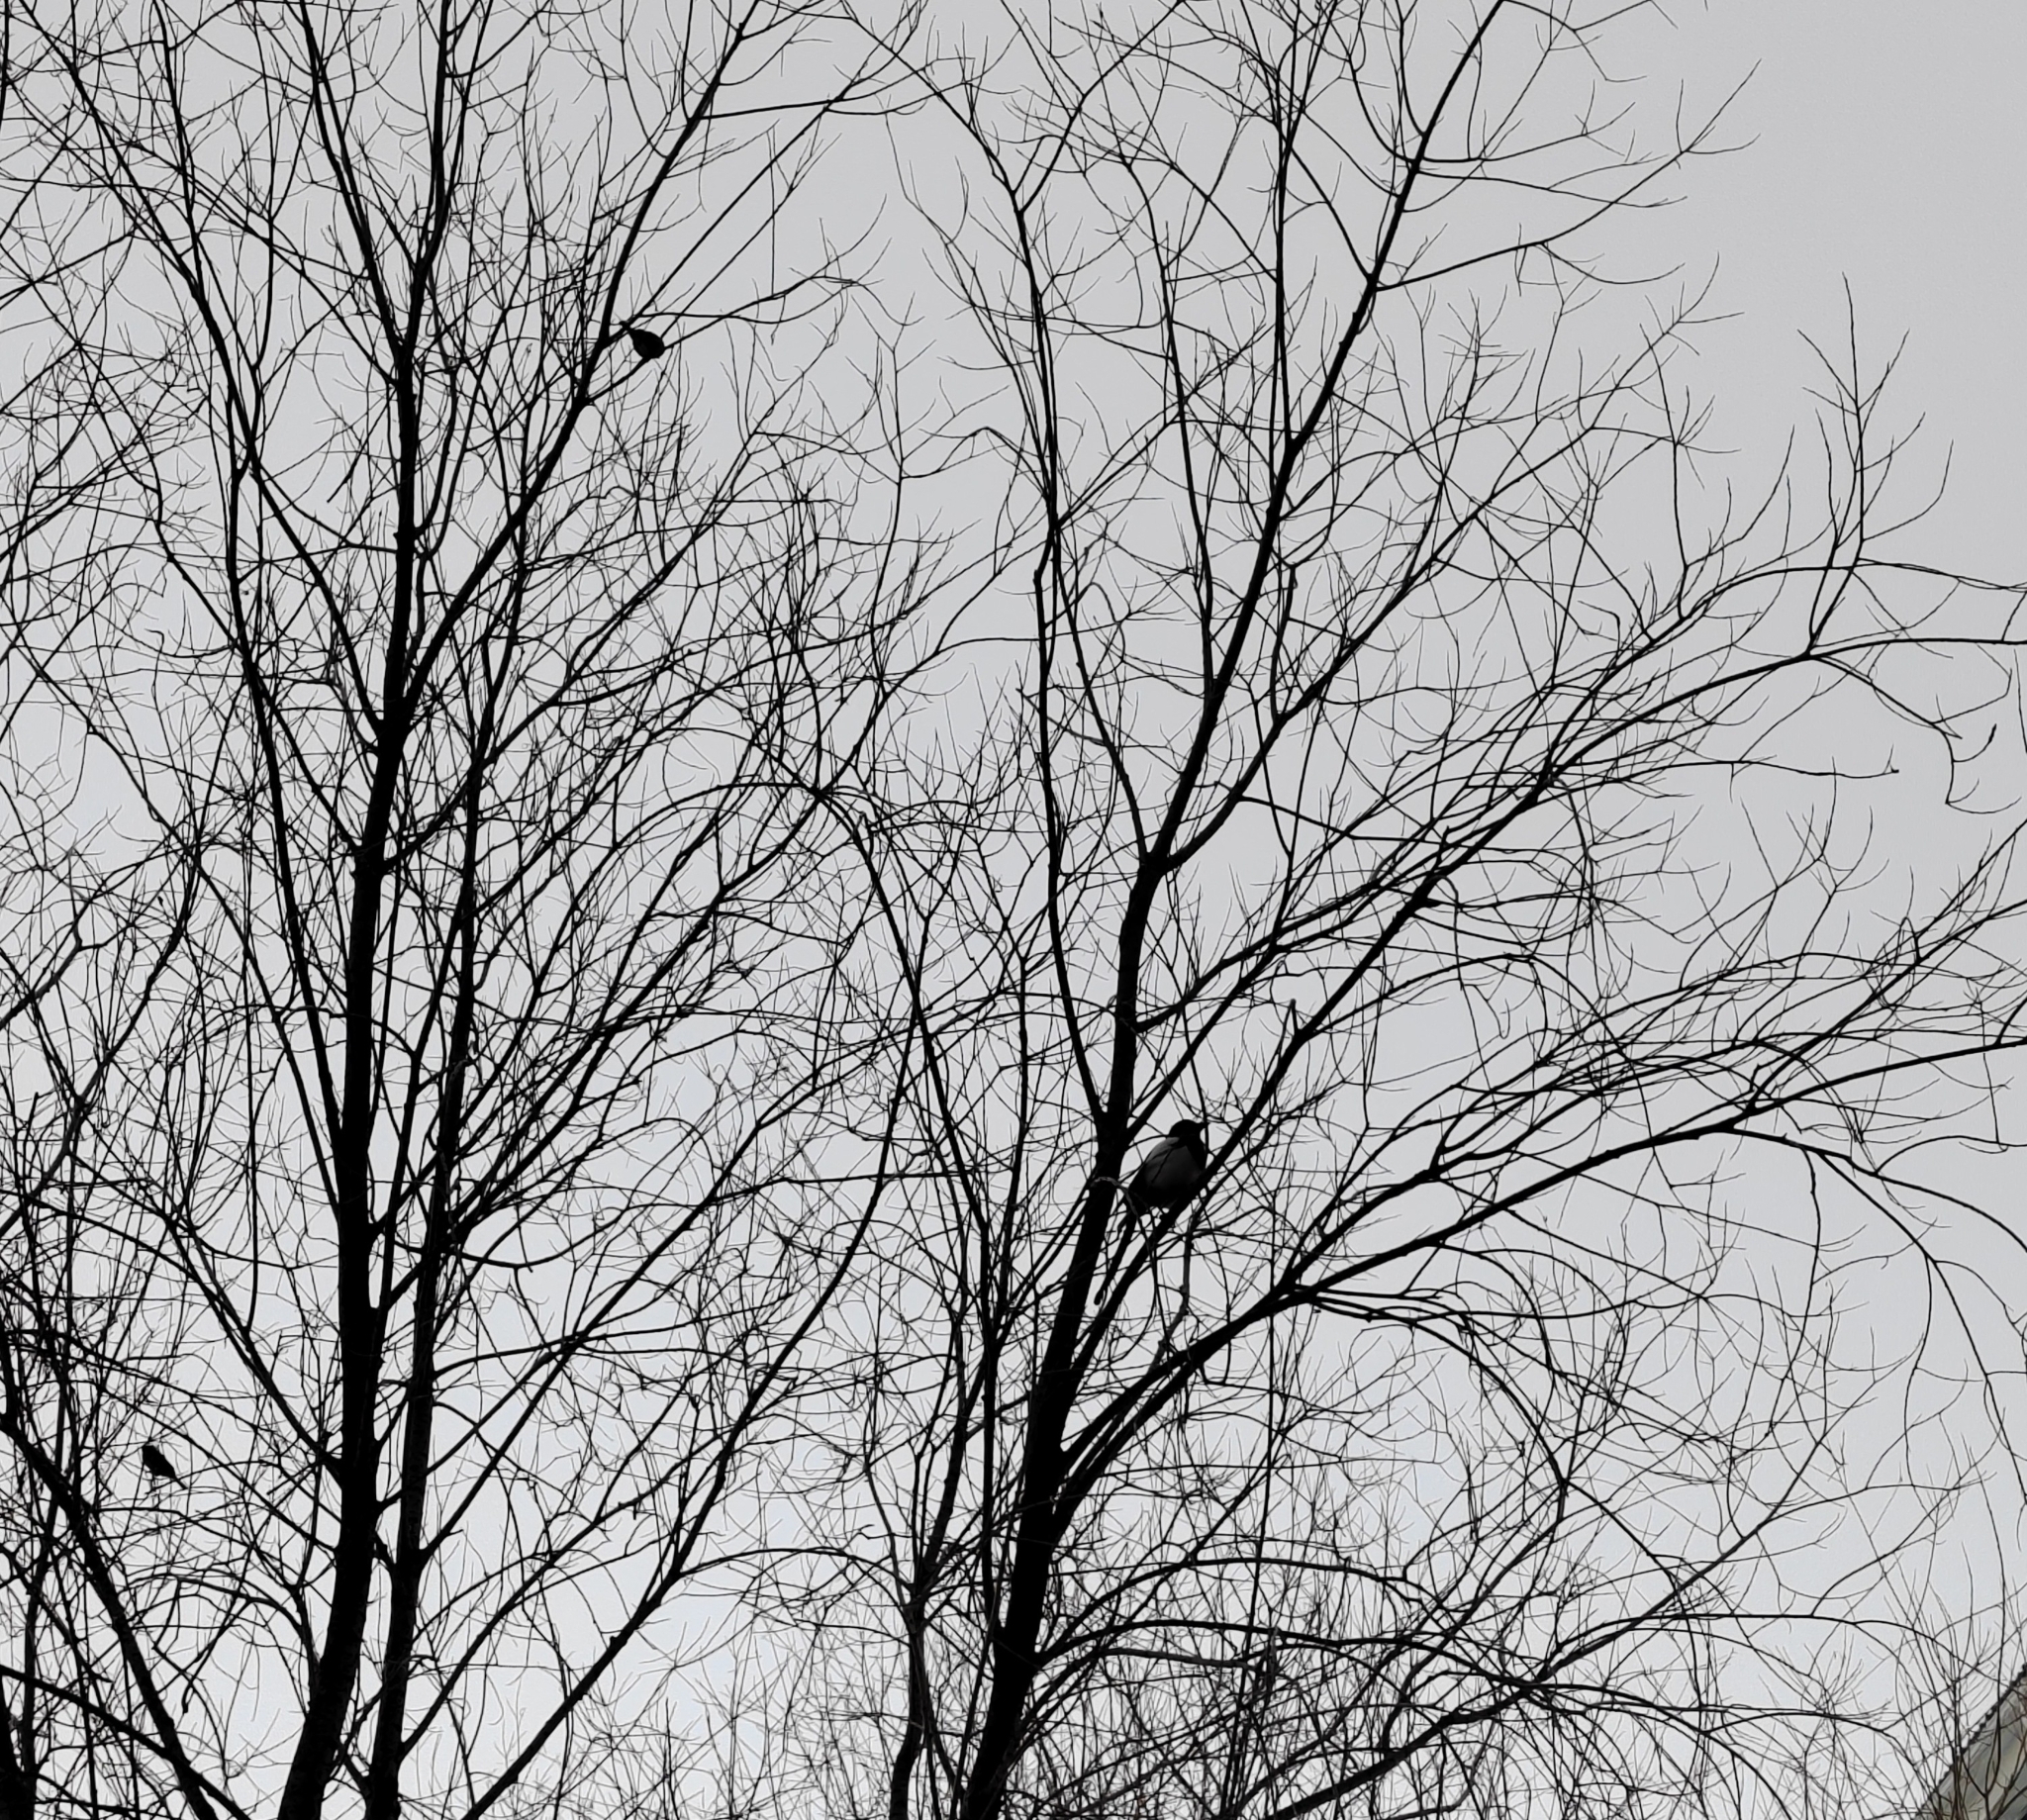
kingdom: Animalia
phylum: Chordata
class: Aves
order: Passeriformes
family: Corvidae
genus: Pica
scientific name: Pica pica
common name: Eurasian magpie
